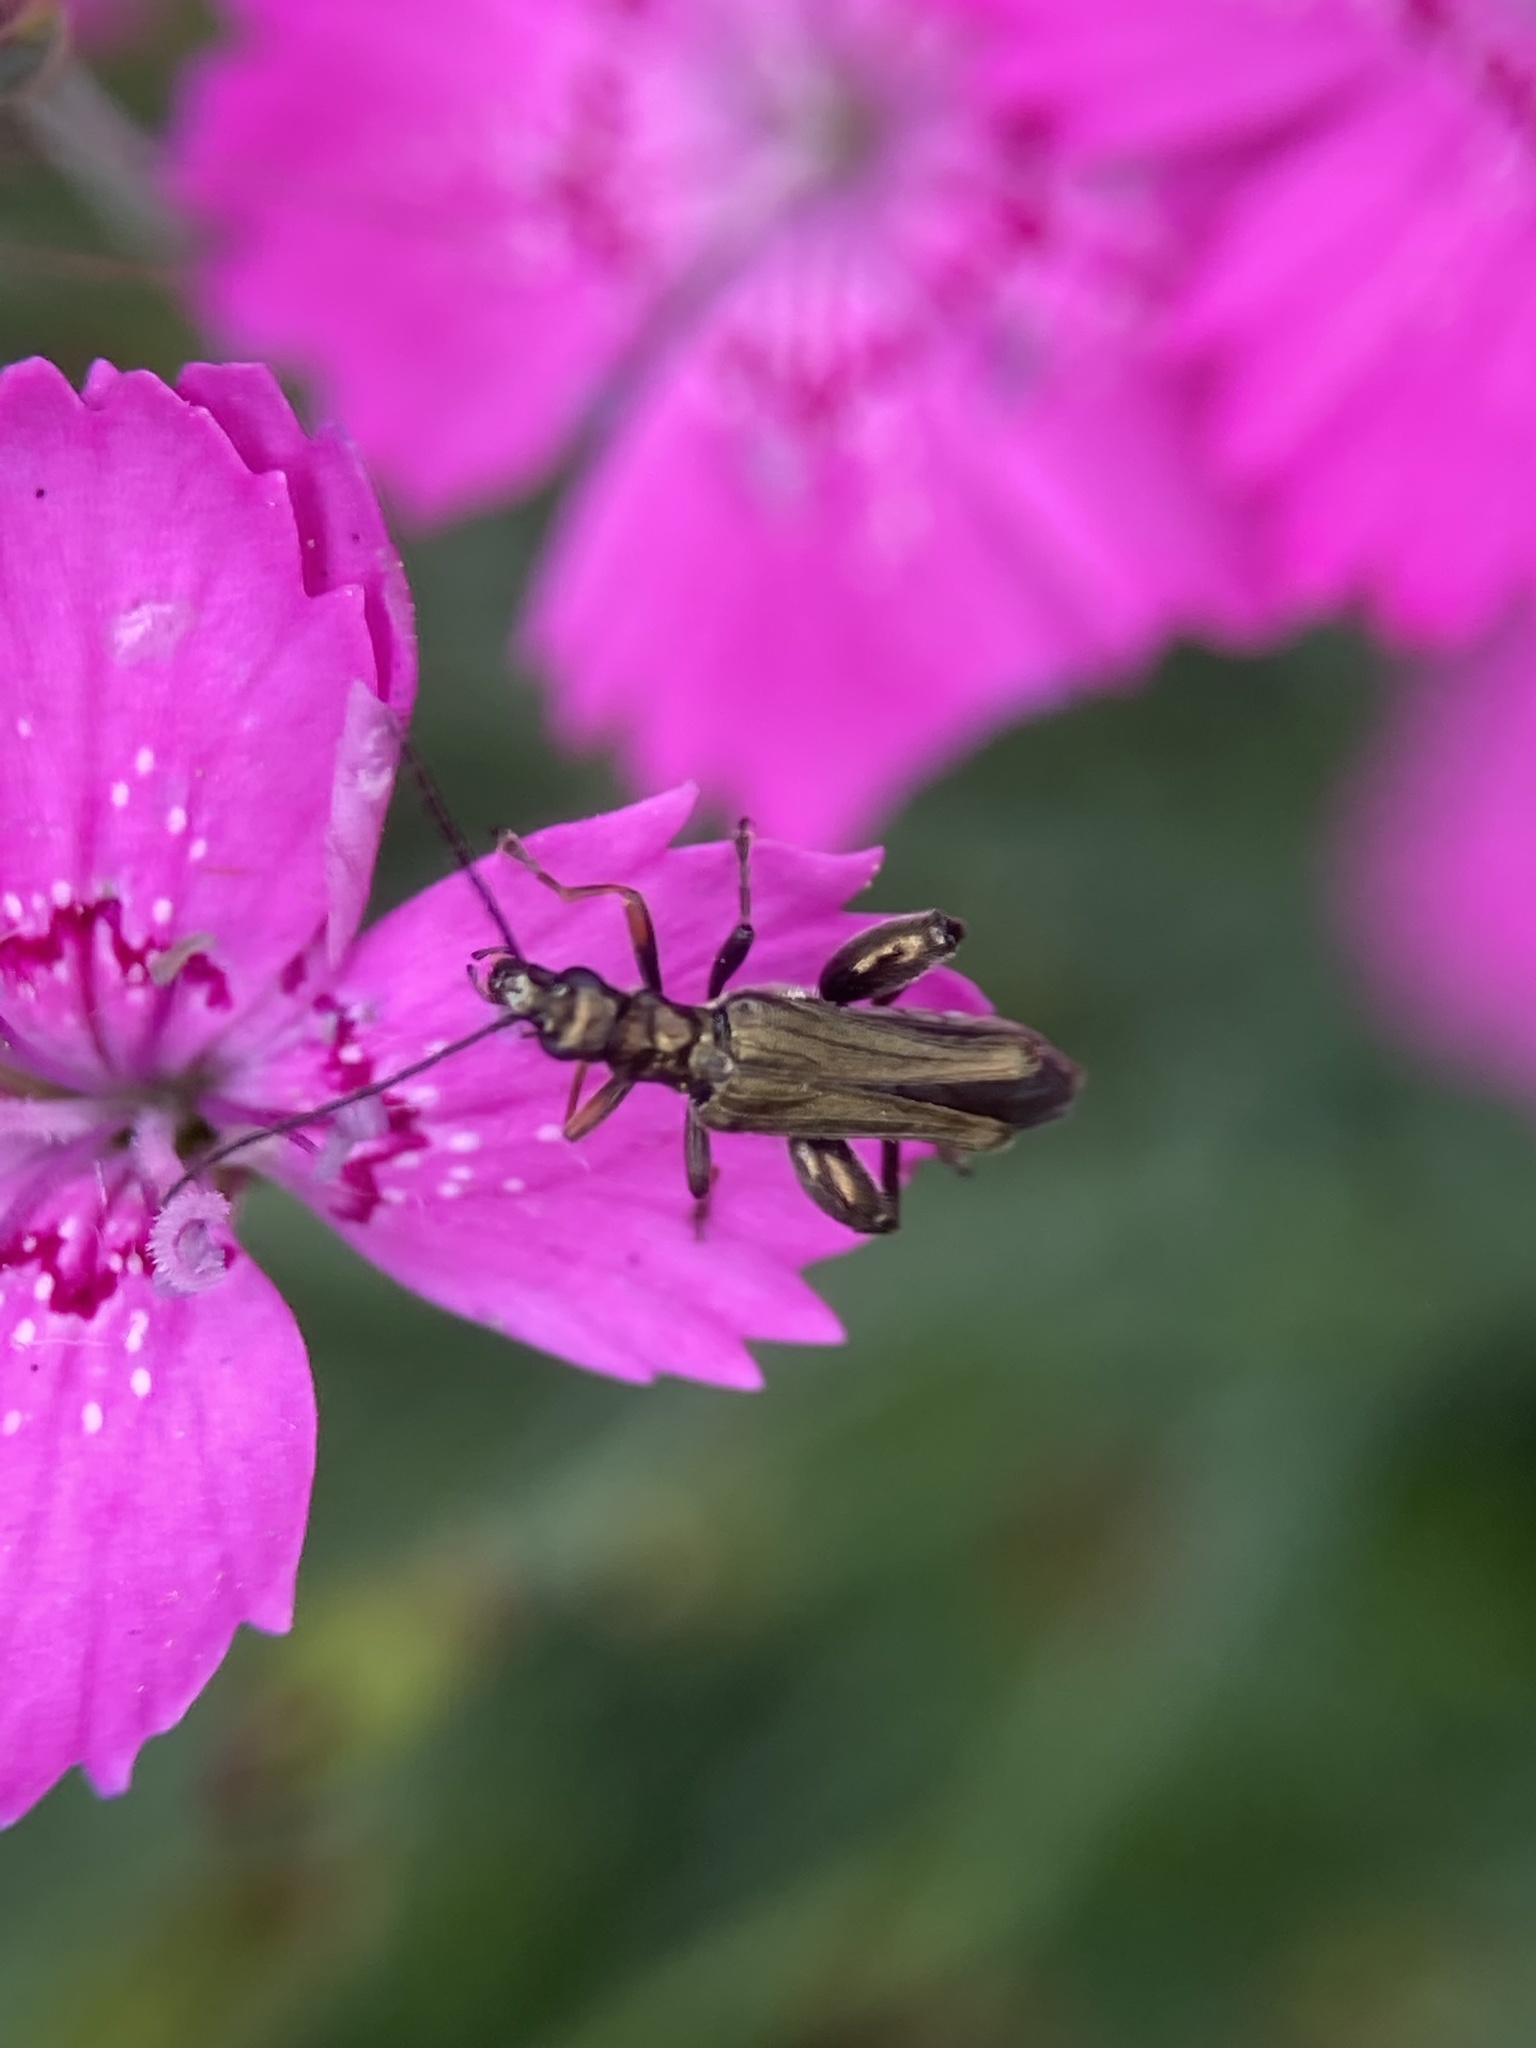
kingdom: Animalia
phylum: Arthropoda
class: Insecta
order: Coleoptera
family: Oedemeridae
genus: Oedemera
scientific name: Oedemera flavipes
